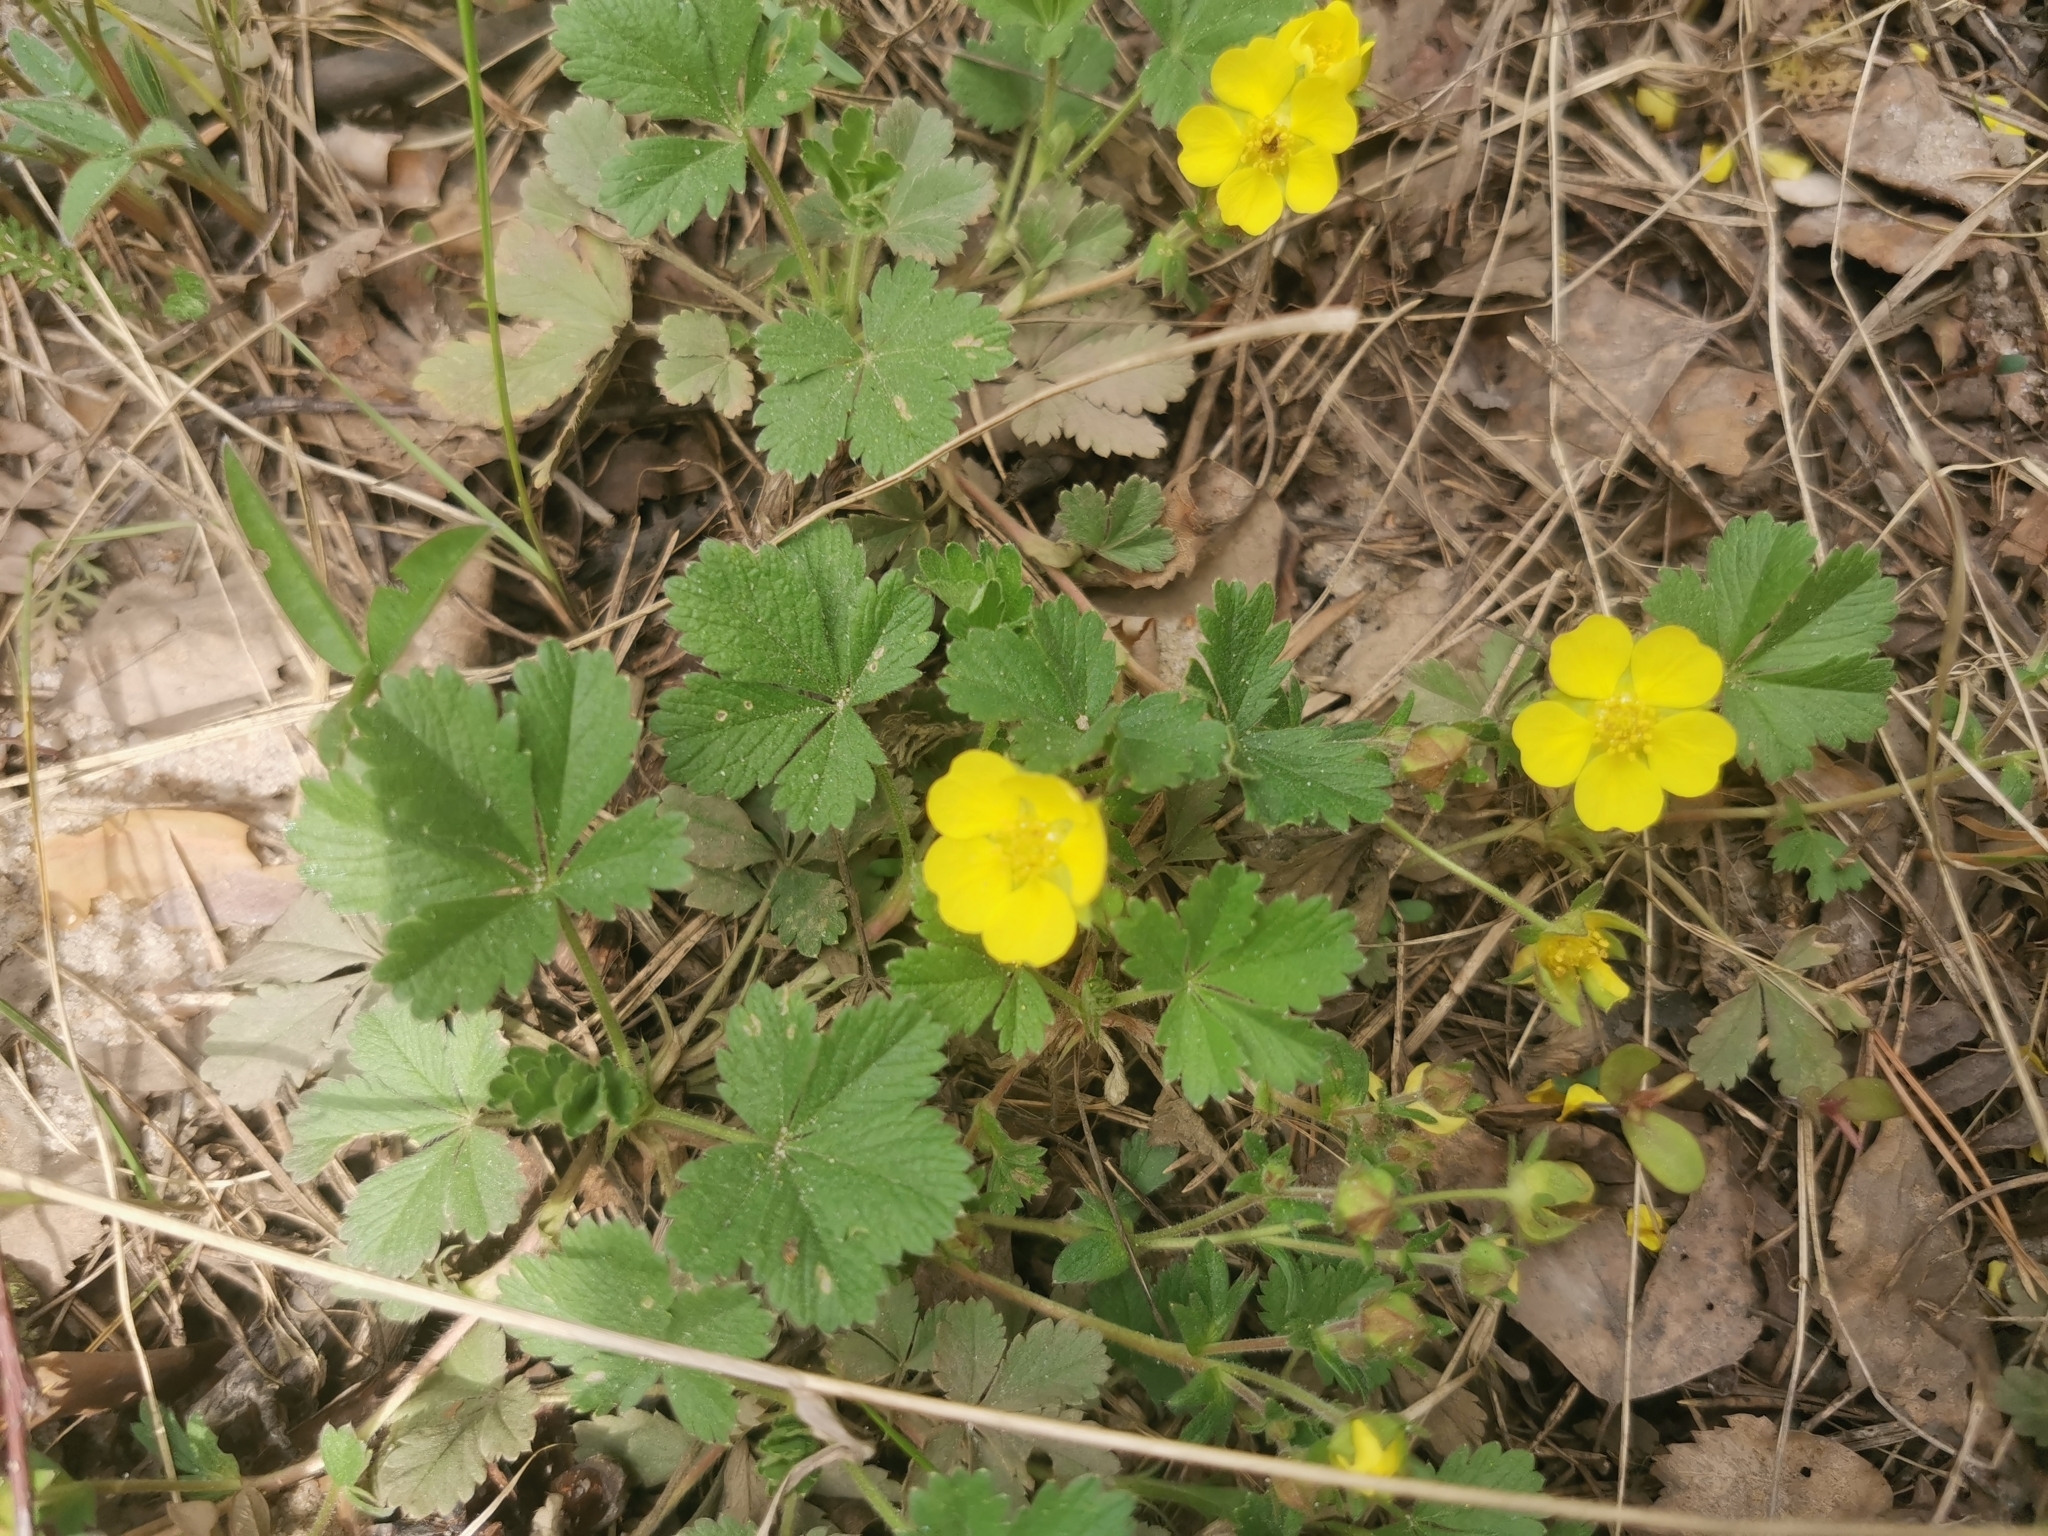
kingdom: Plantae
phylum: Tracheophyta
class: Magnoliopsida
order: Rosales
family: Rosaceae
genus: Potentilla
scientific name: Potentilla incana
